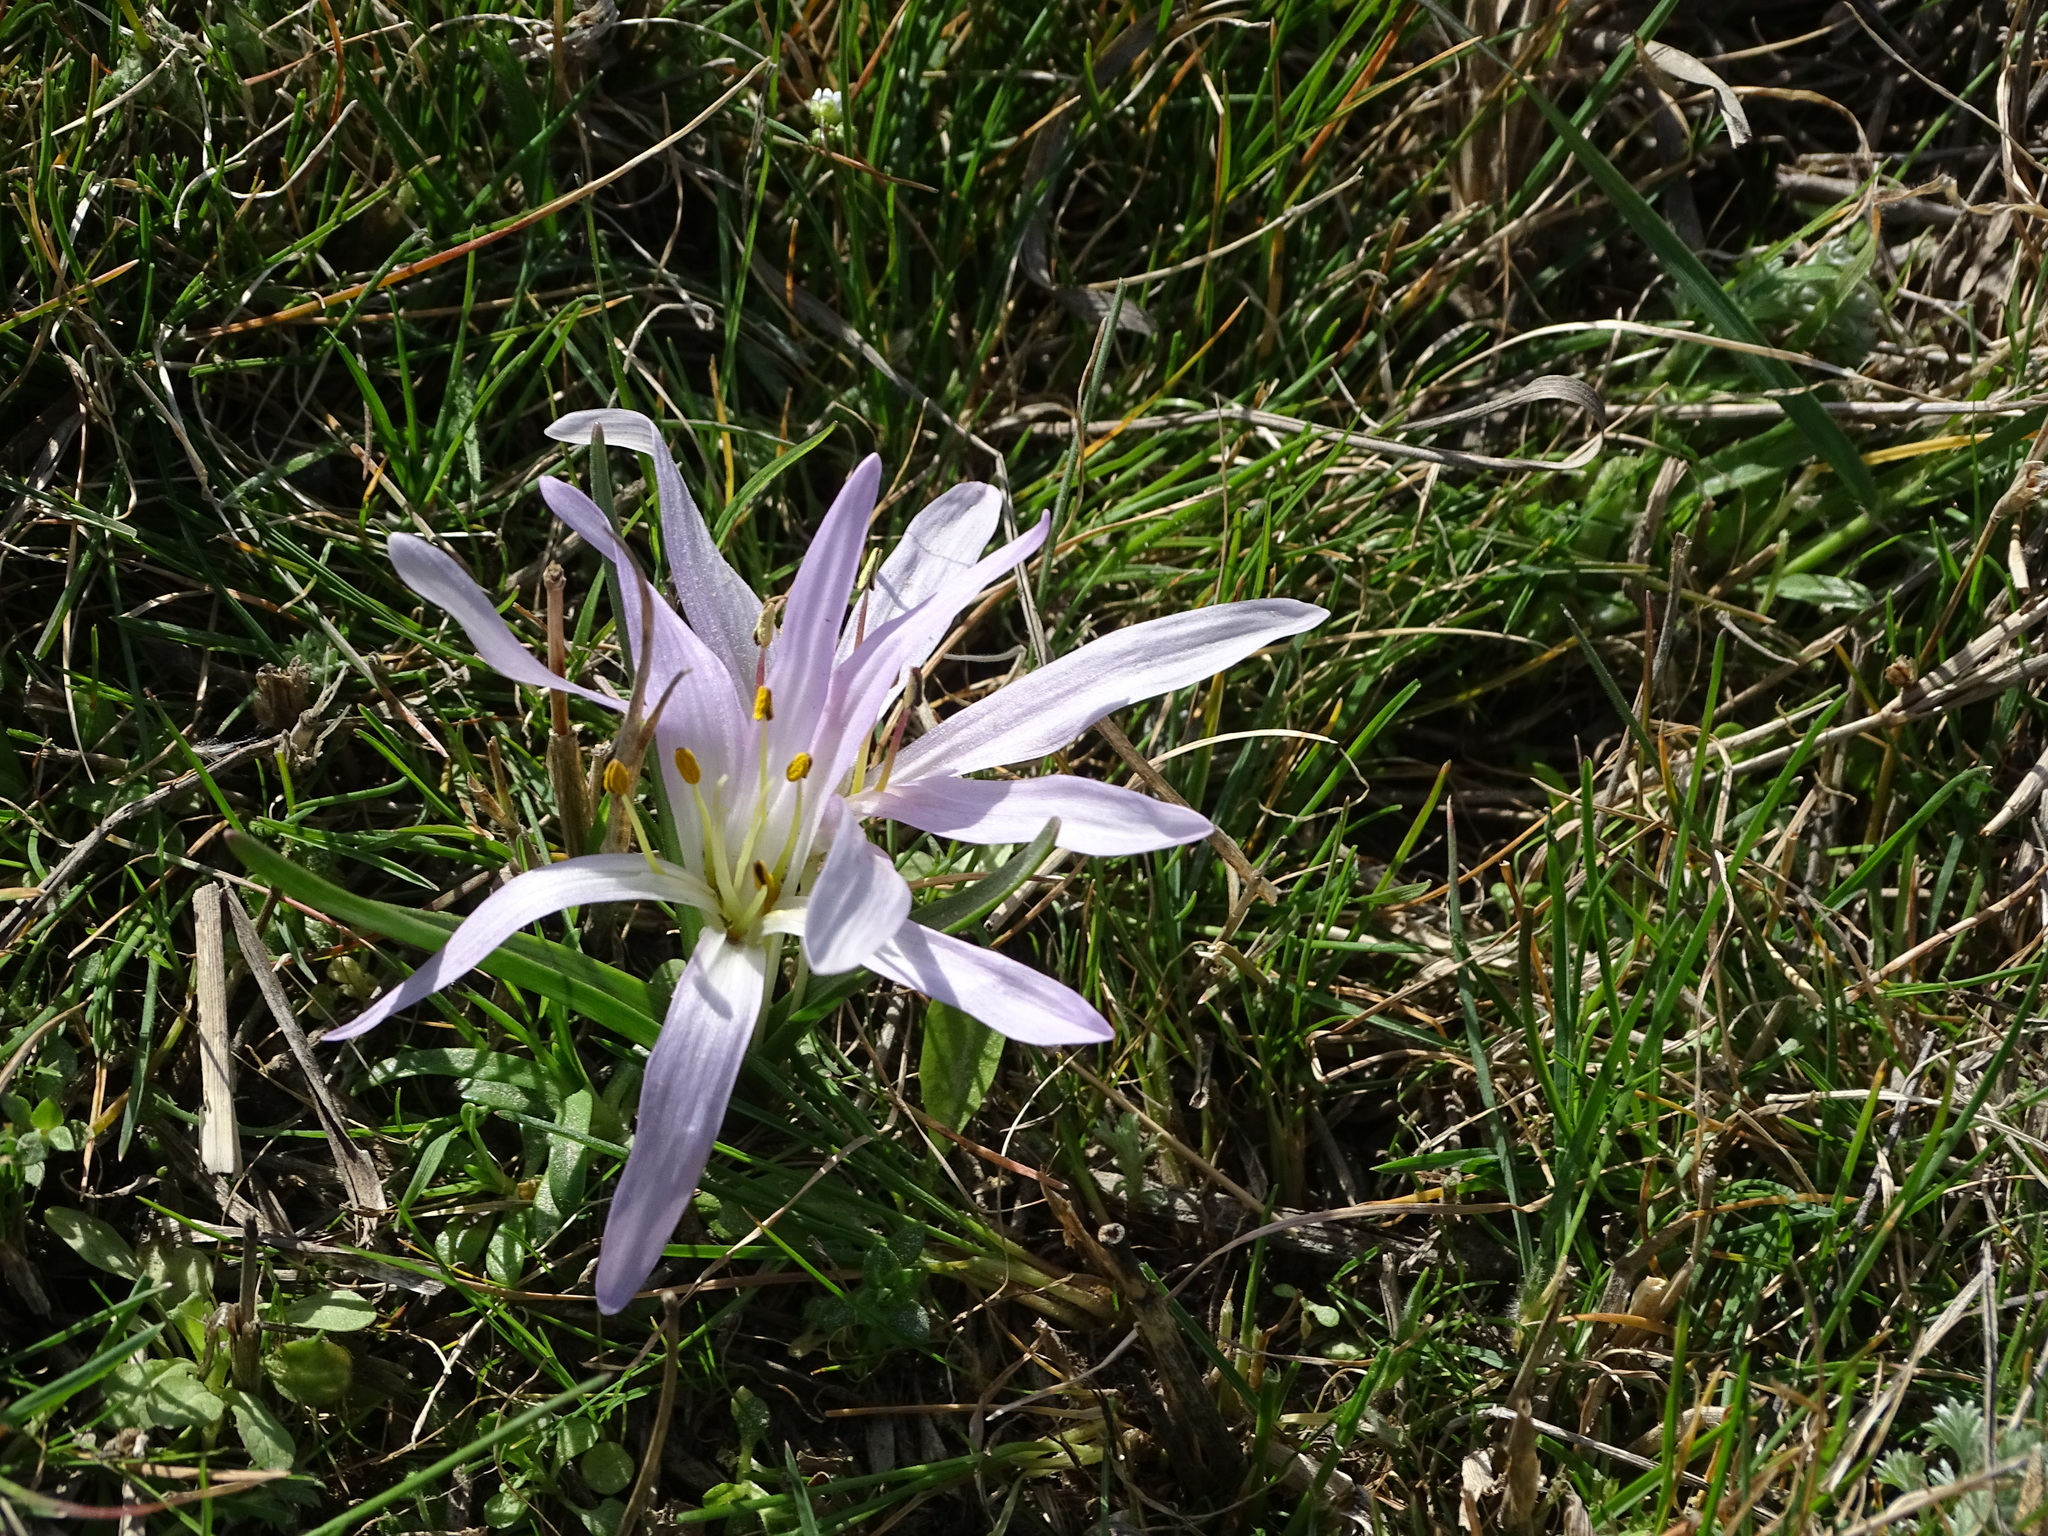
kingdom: Plantae
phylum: Tracheophyta
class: Liliopsida
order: Liliales
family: Colchicaceae
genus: Colchicum
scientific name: Colchicum soboliferum
